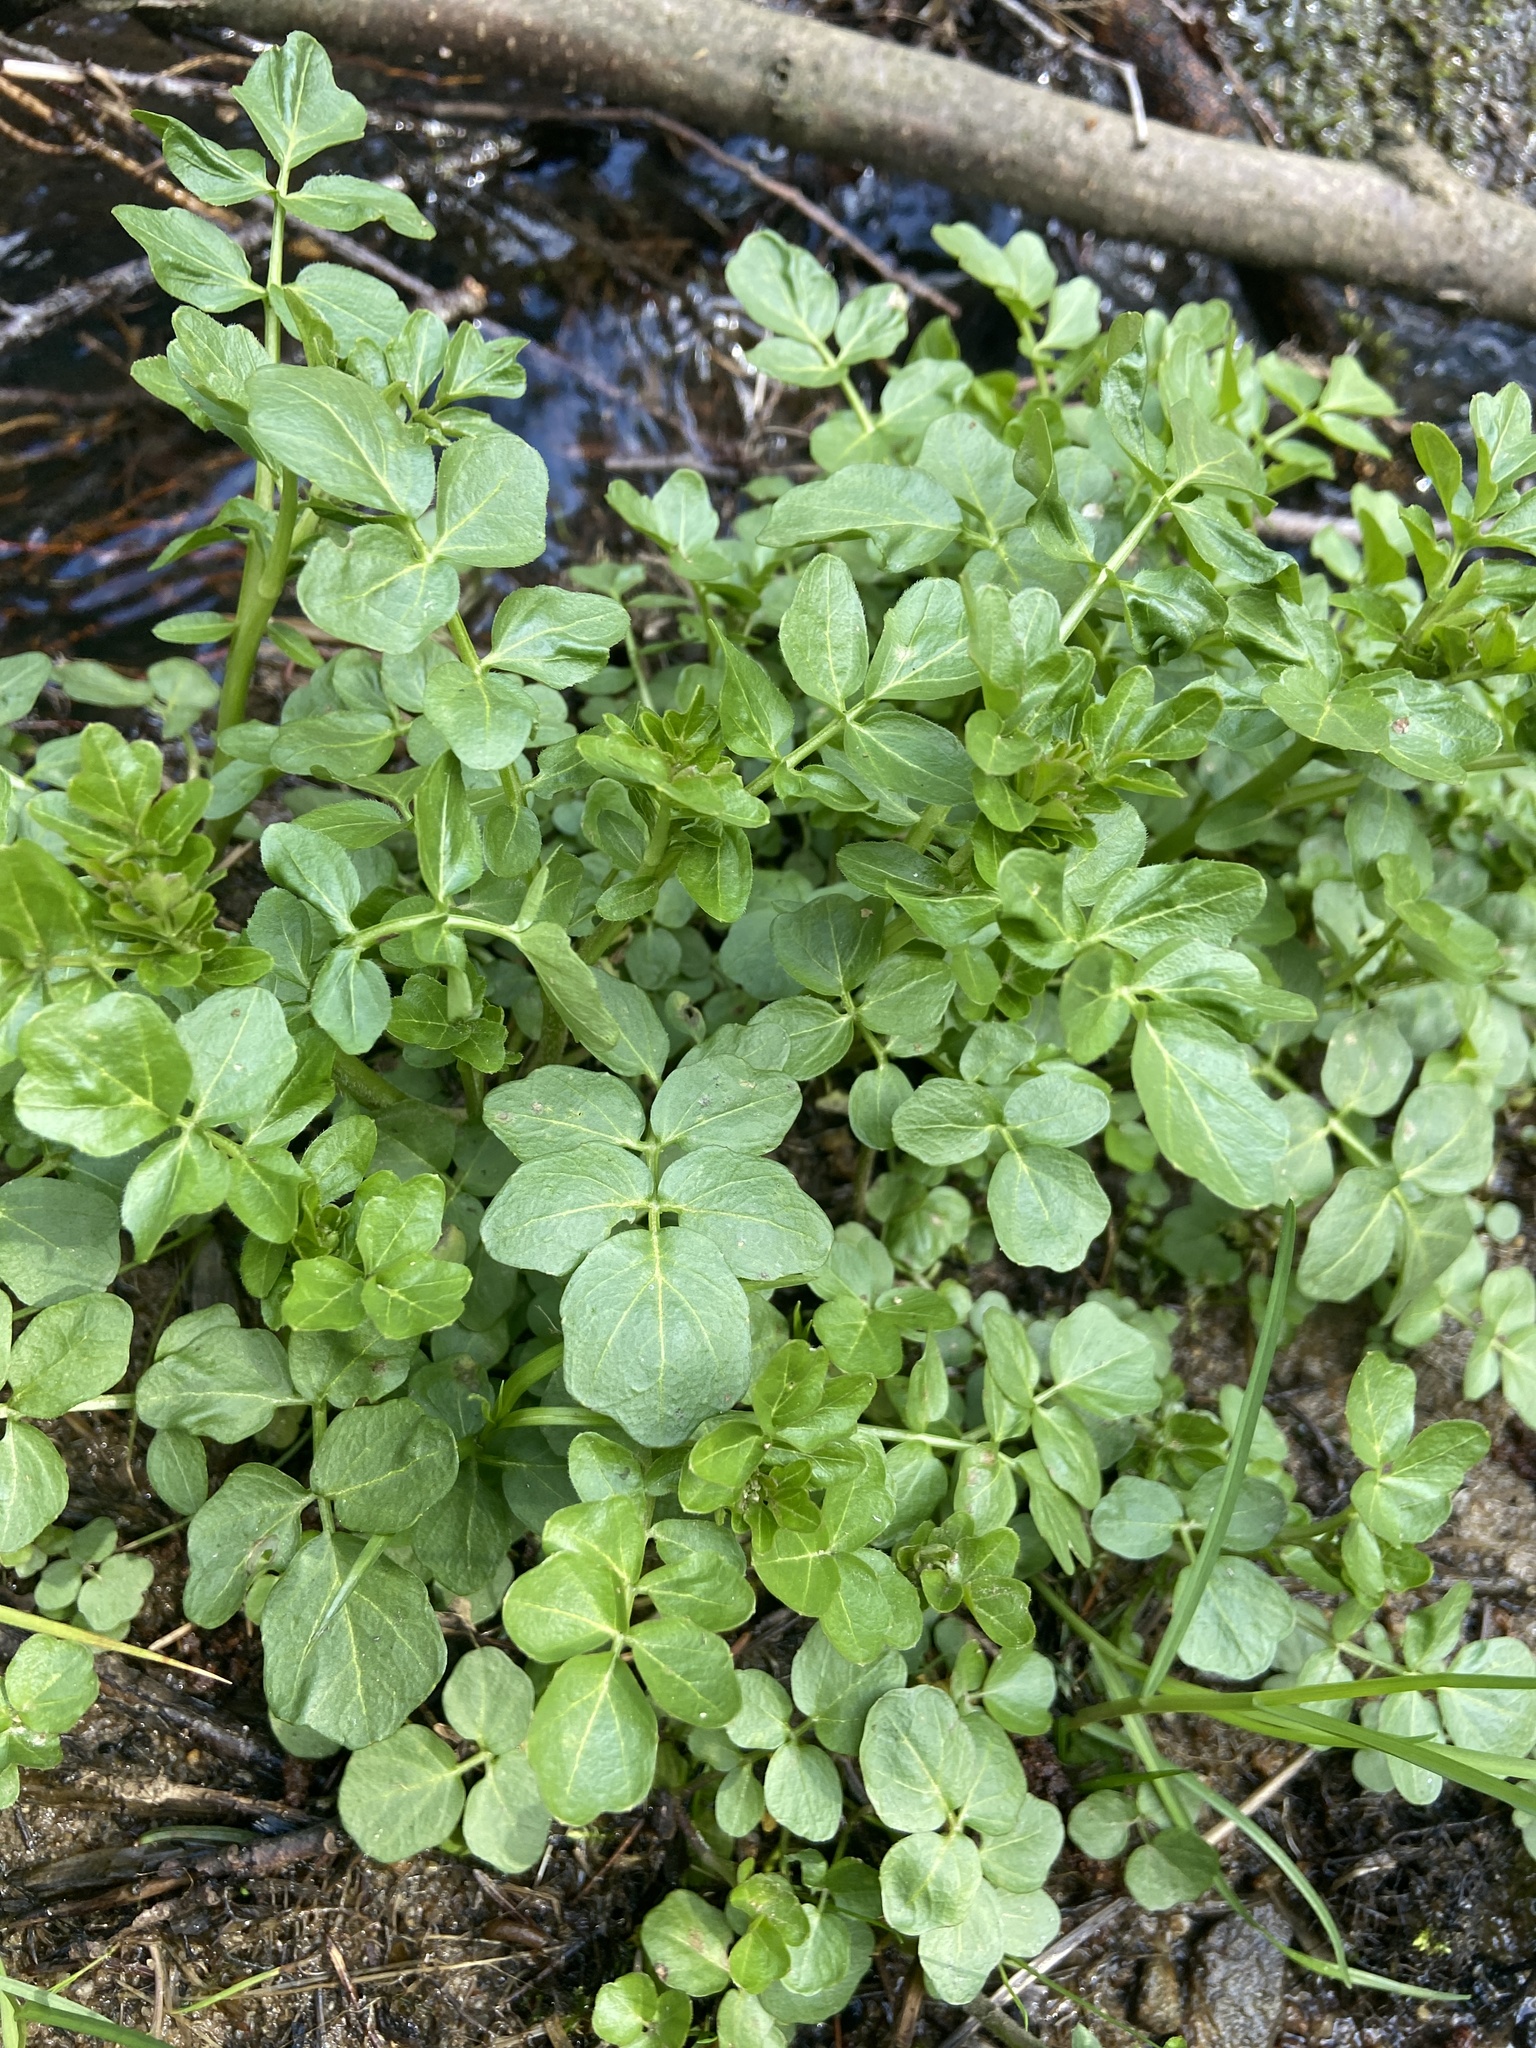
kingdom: Plantae
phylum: Tracheophyta
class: Magnoliopsida
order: Brassicales
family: Brassicaceae
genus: Cardamine
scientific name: Cardamine amara
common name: Large bitter-cress
